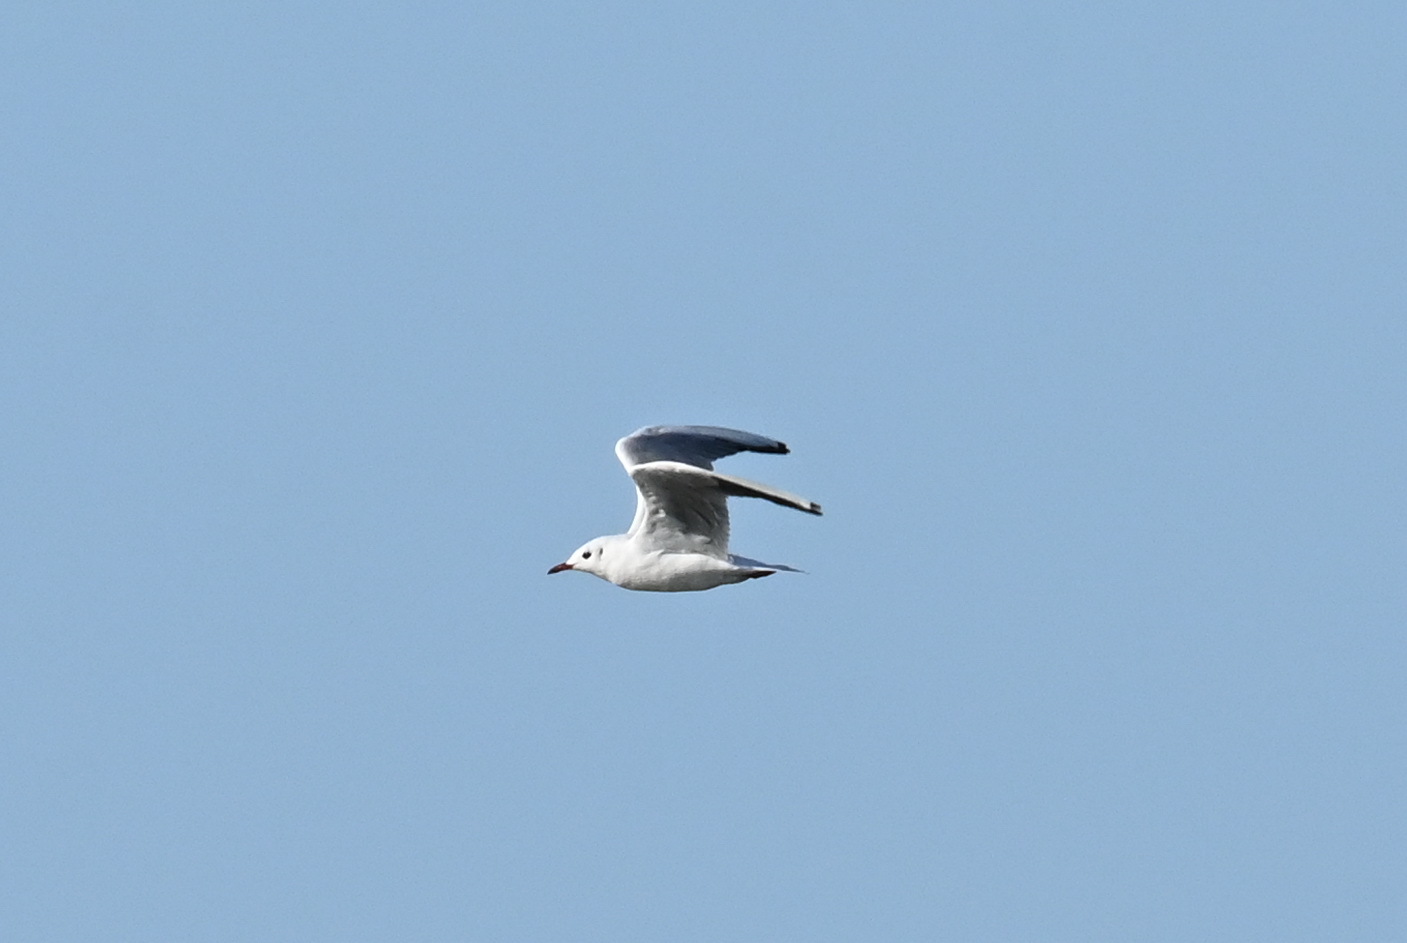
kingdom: Animalia
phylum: Chordata
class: Aves
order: Charadriiformes
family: Laridae
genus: Chroicocephalus
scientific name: Chroicocephalus ridibundus
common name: Black-headed gull
